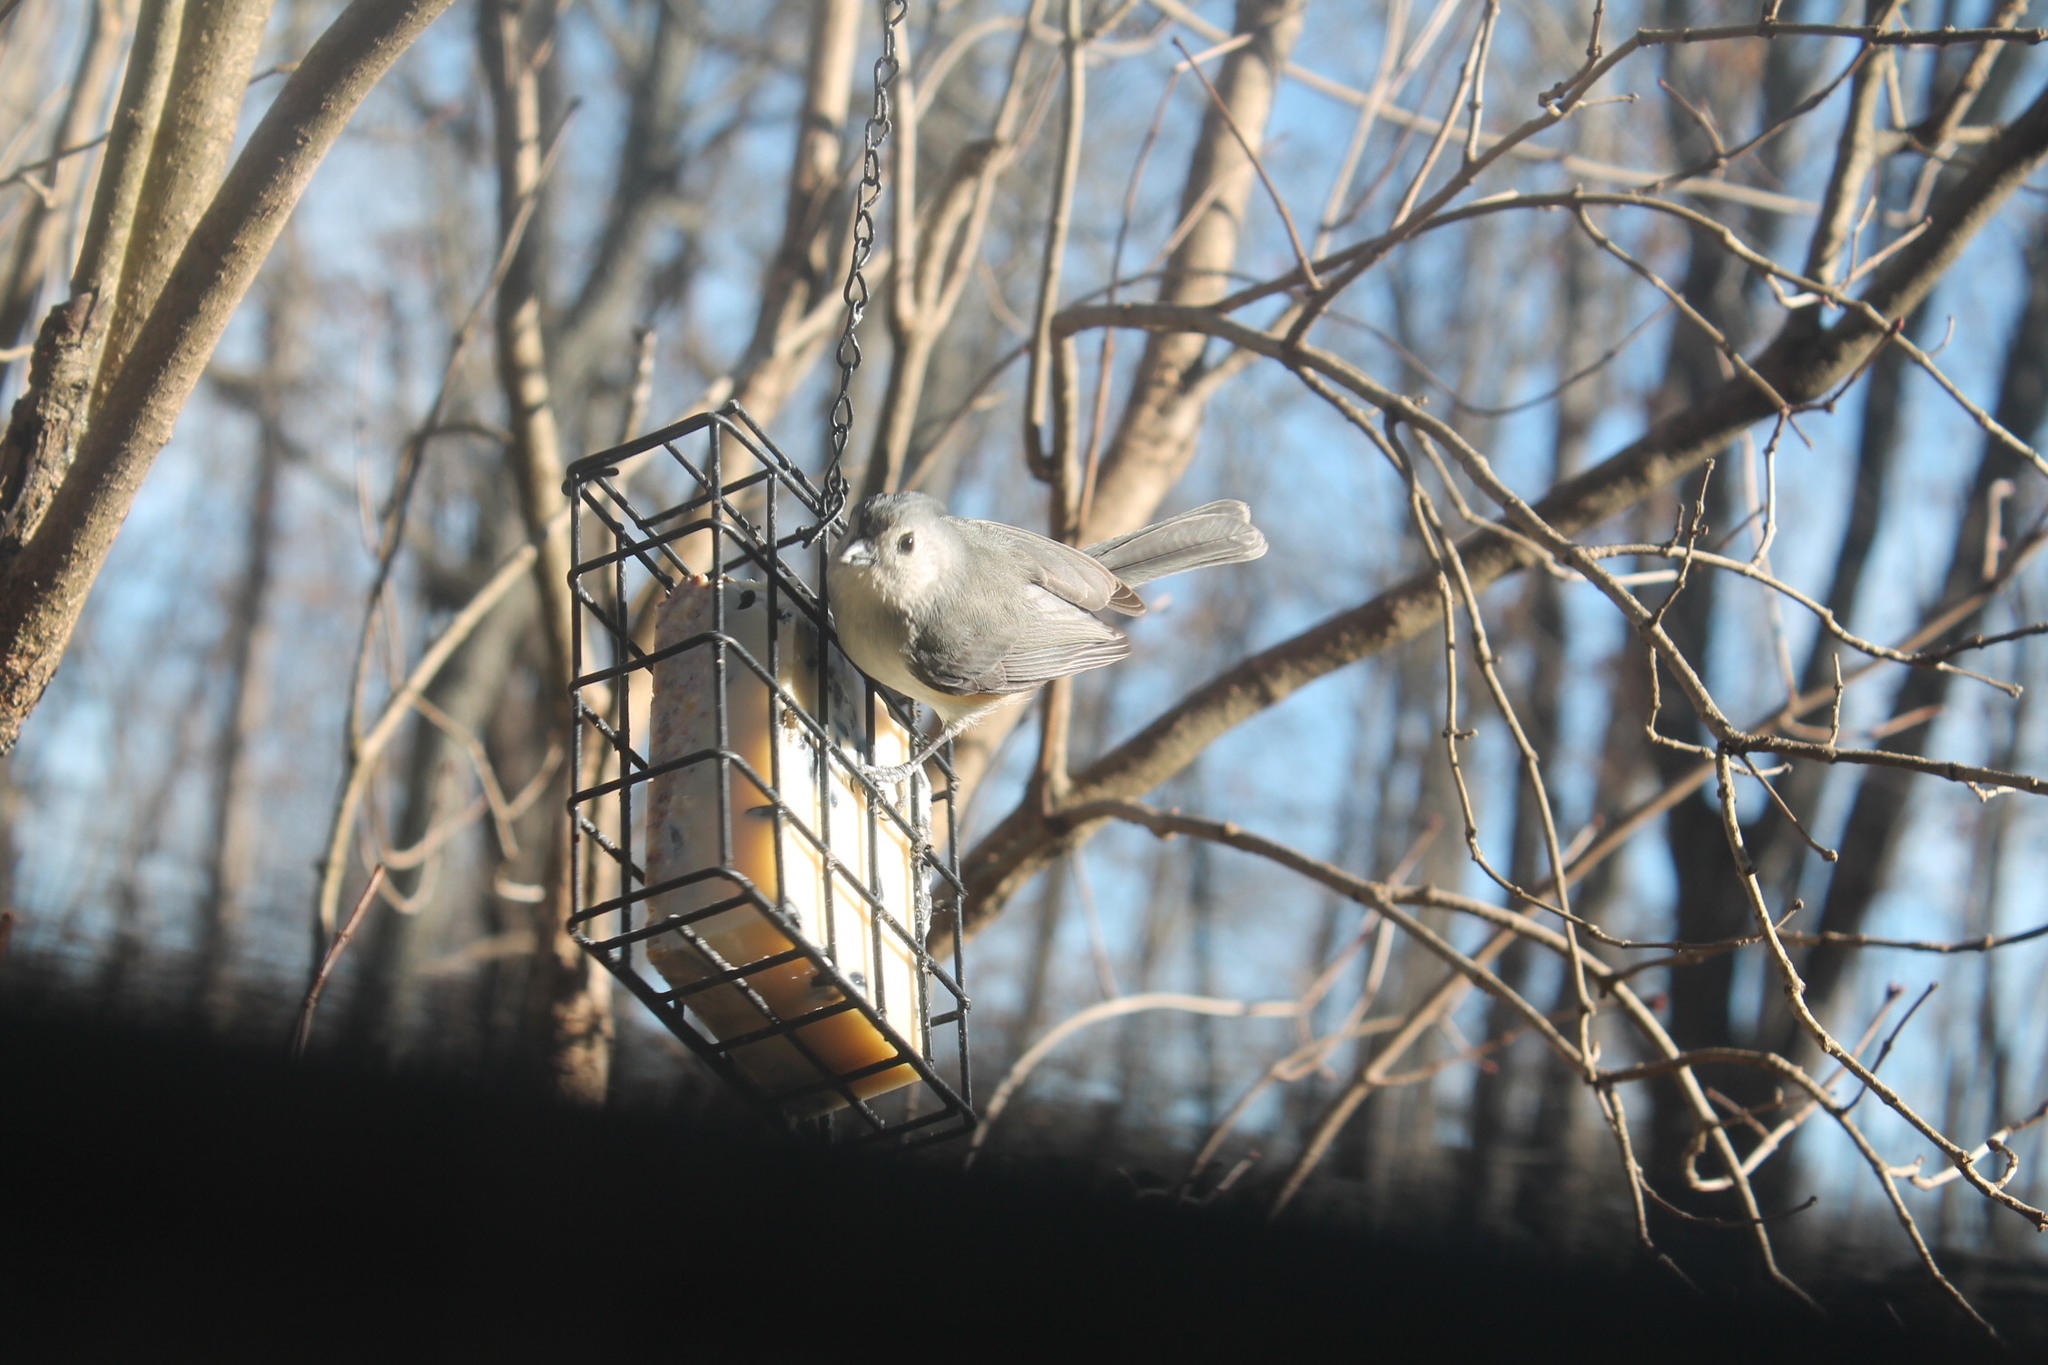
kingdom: Animalia
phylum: Chordata
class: Aves
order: Passeriformes
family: Paridae
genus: Baeolophus
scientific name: Baeolophus bicolor
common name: Tufted titmouse
